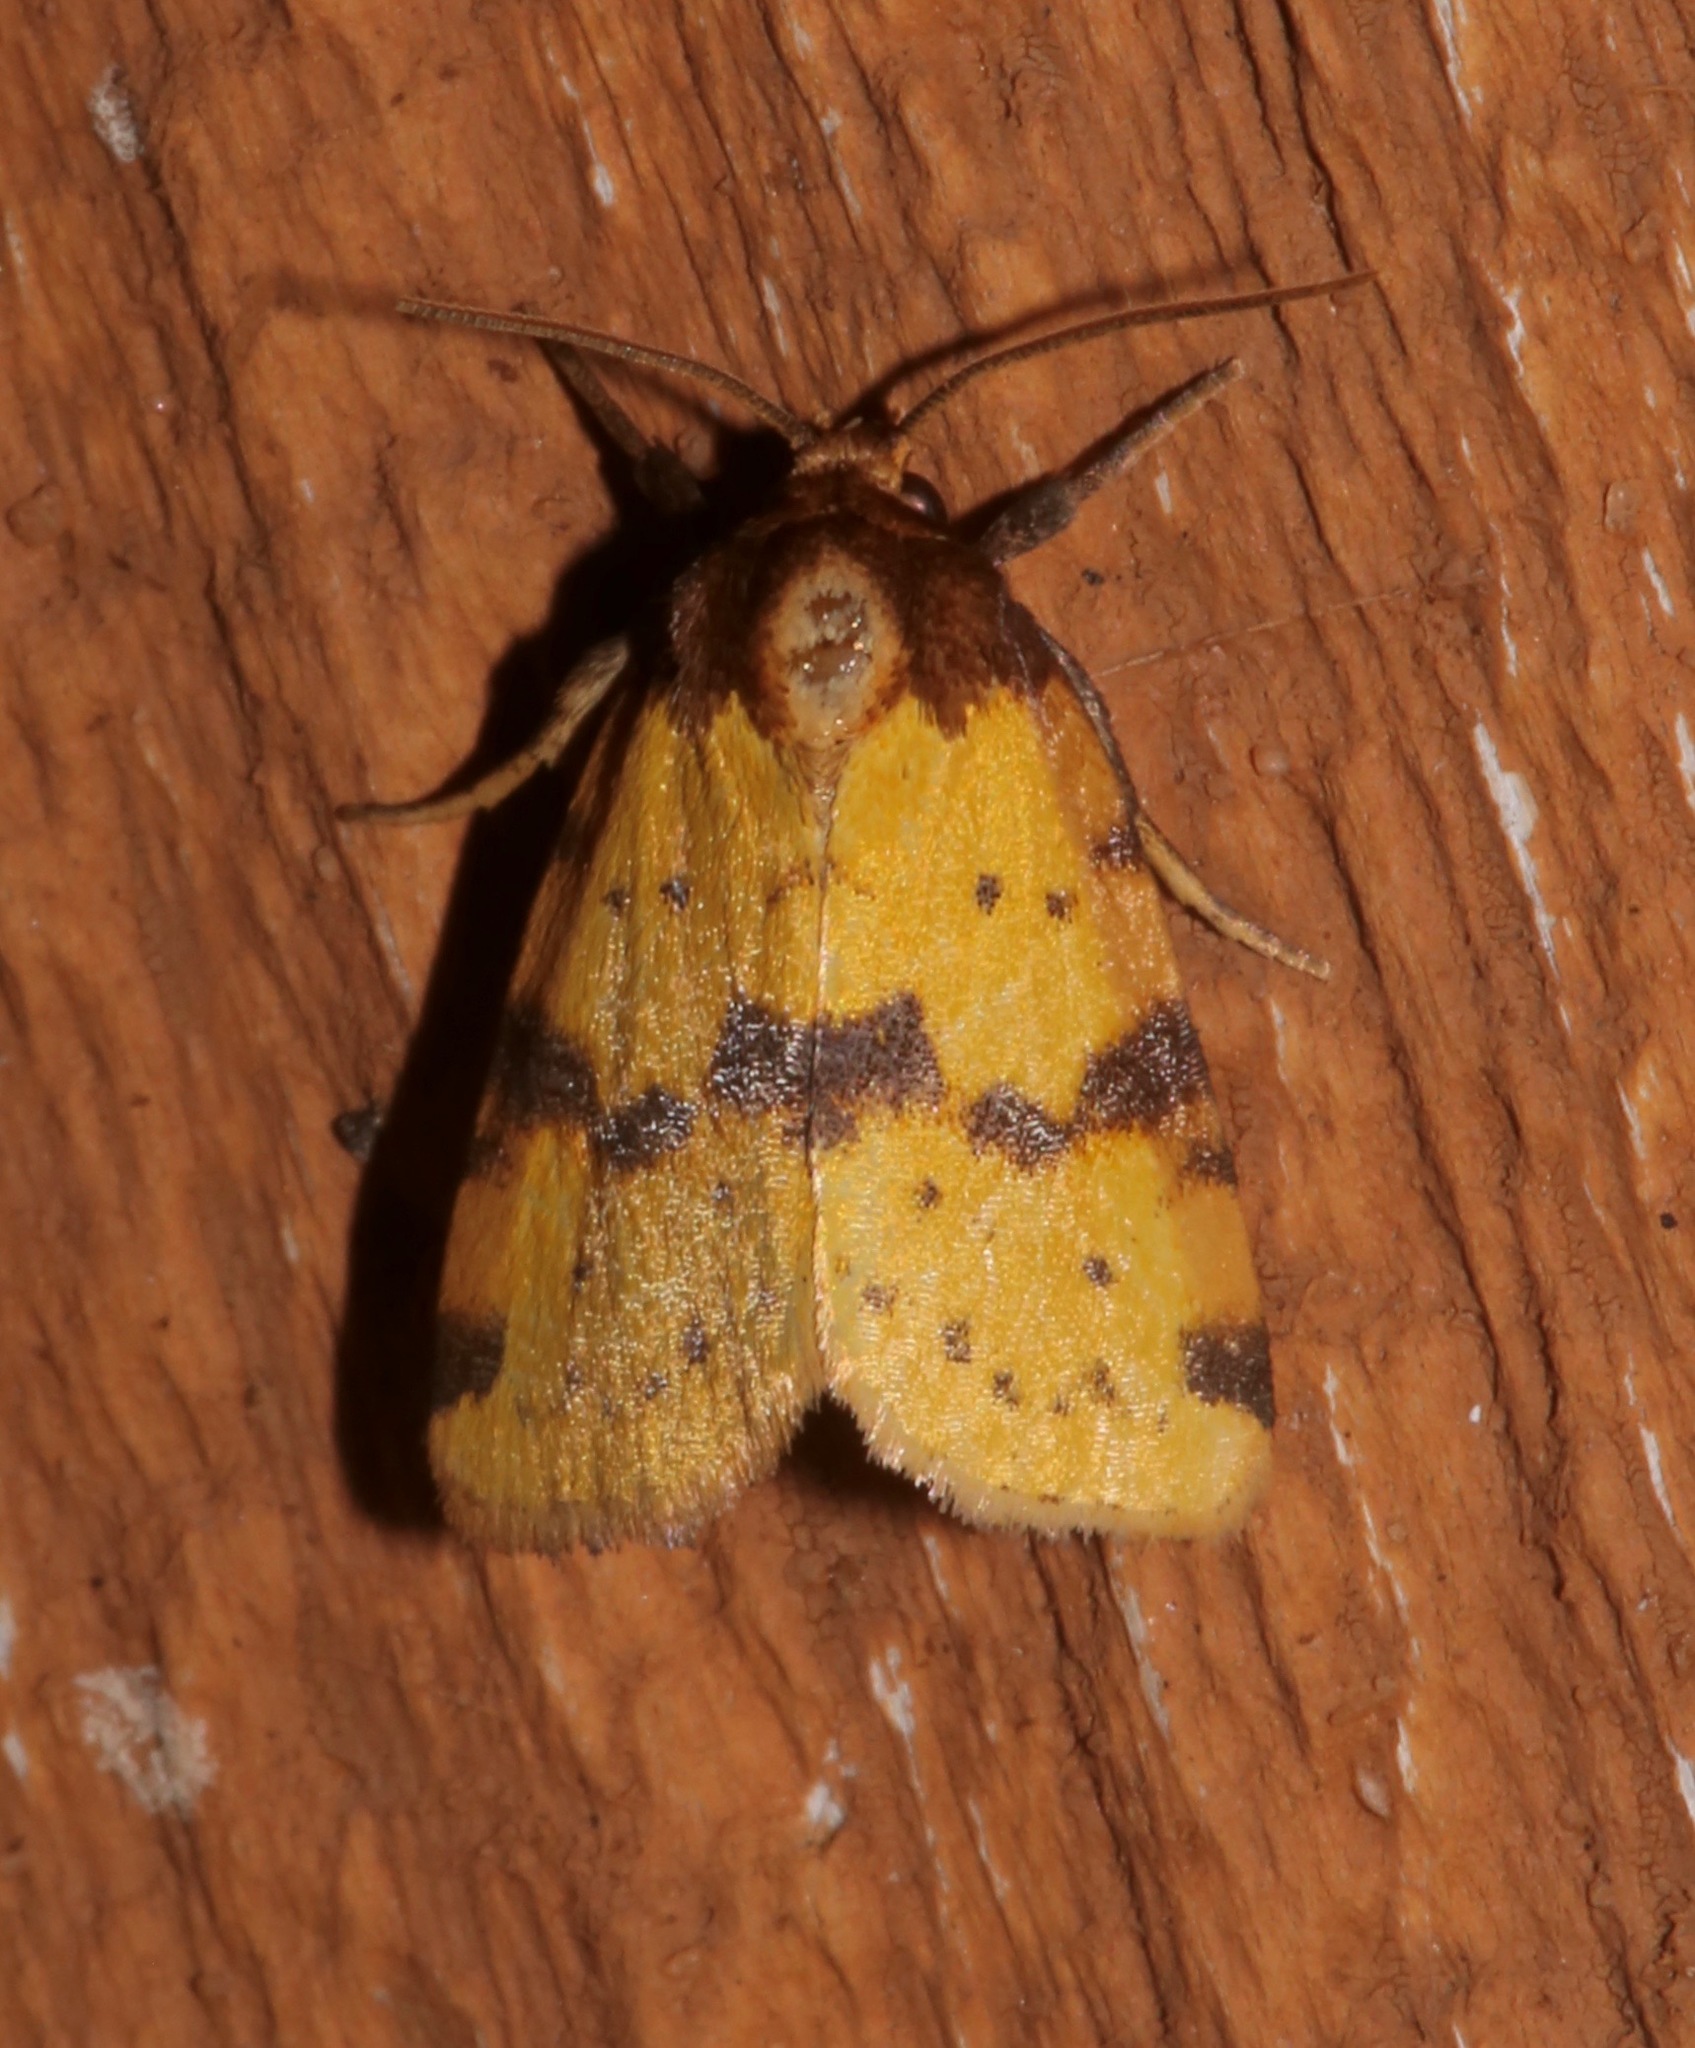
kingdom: Animalia
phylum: Arthropoda
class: Insecta
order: Lepidoptera
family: Noctuidae
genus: Azenia
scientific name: Azenia obtusa
